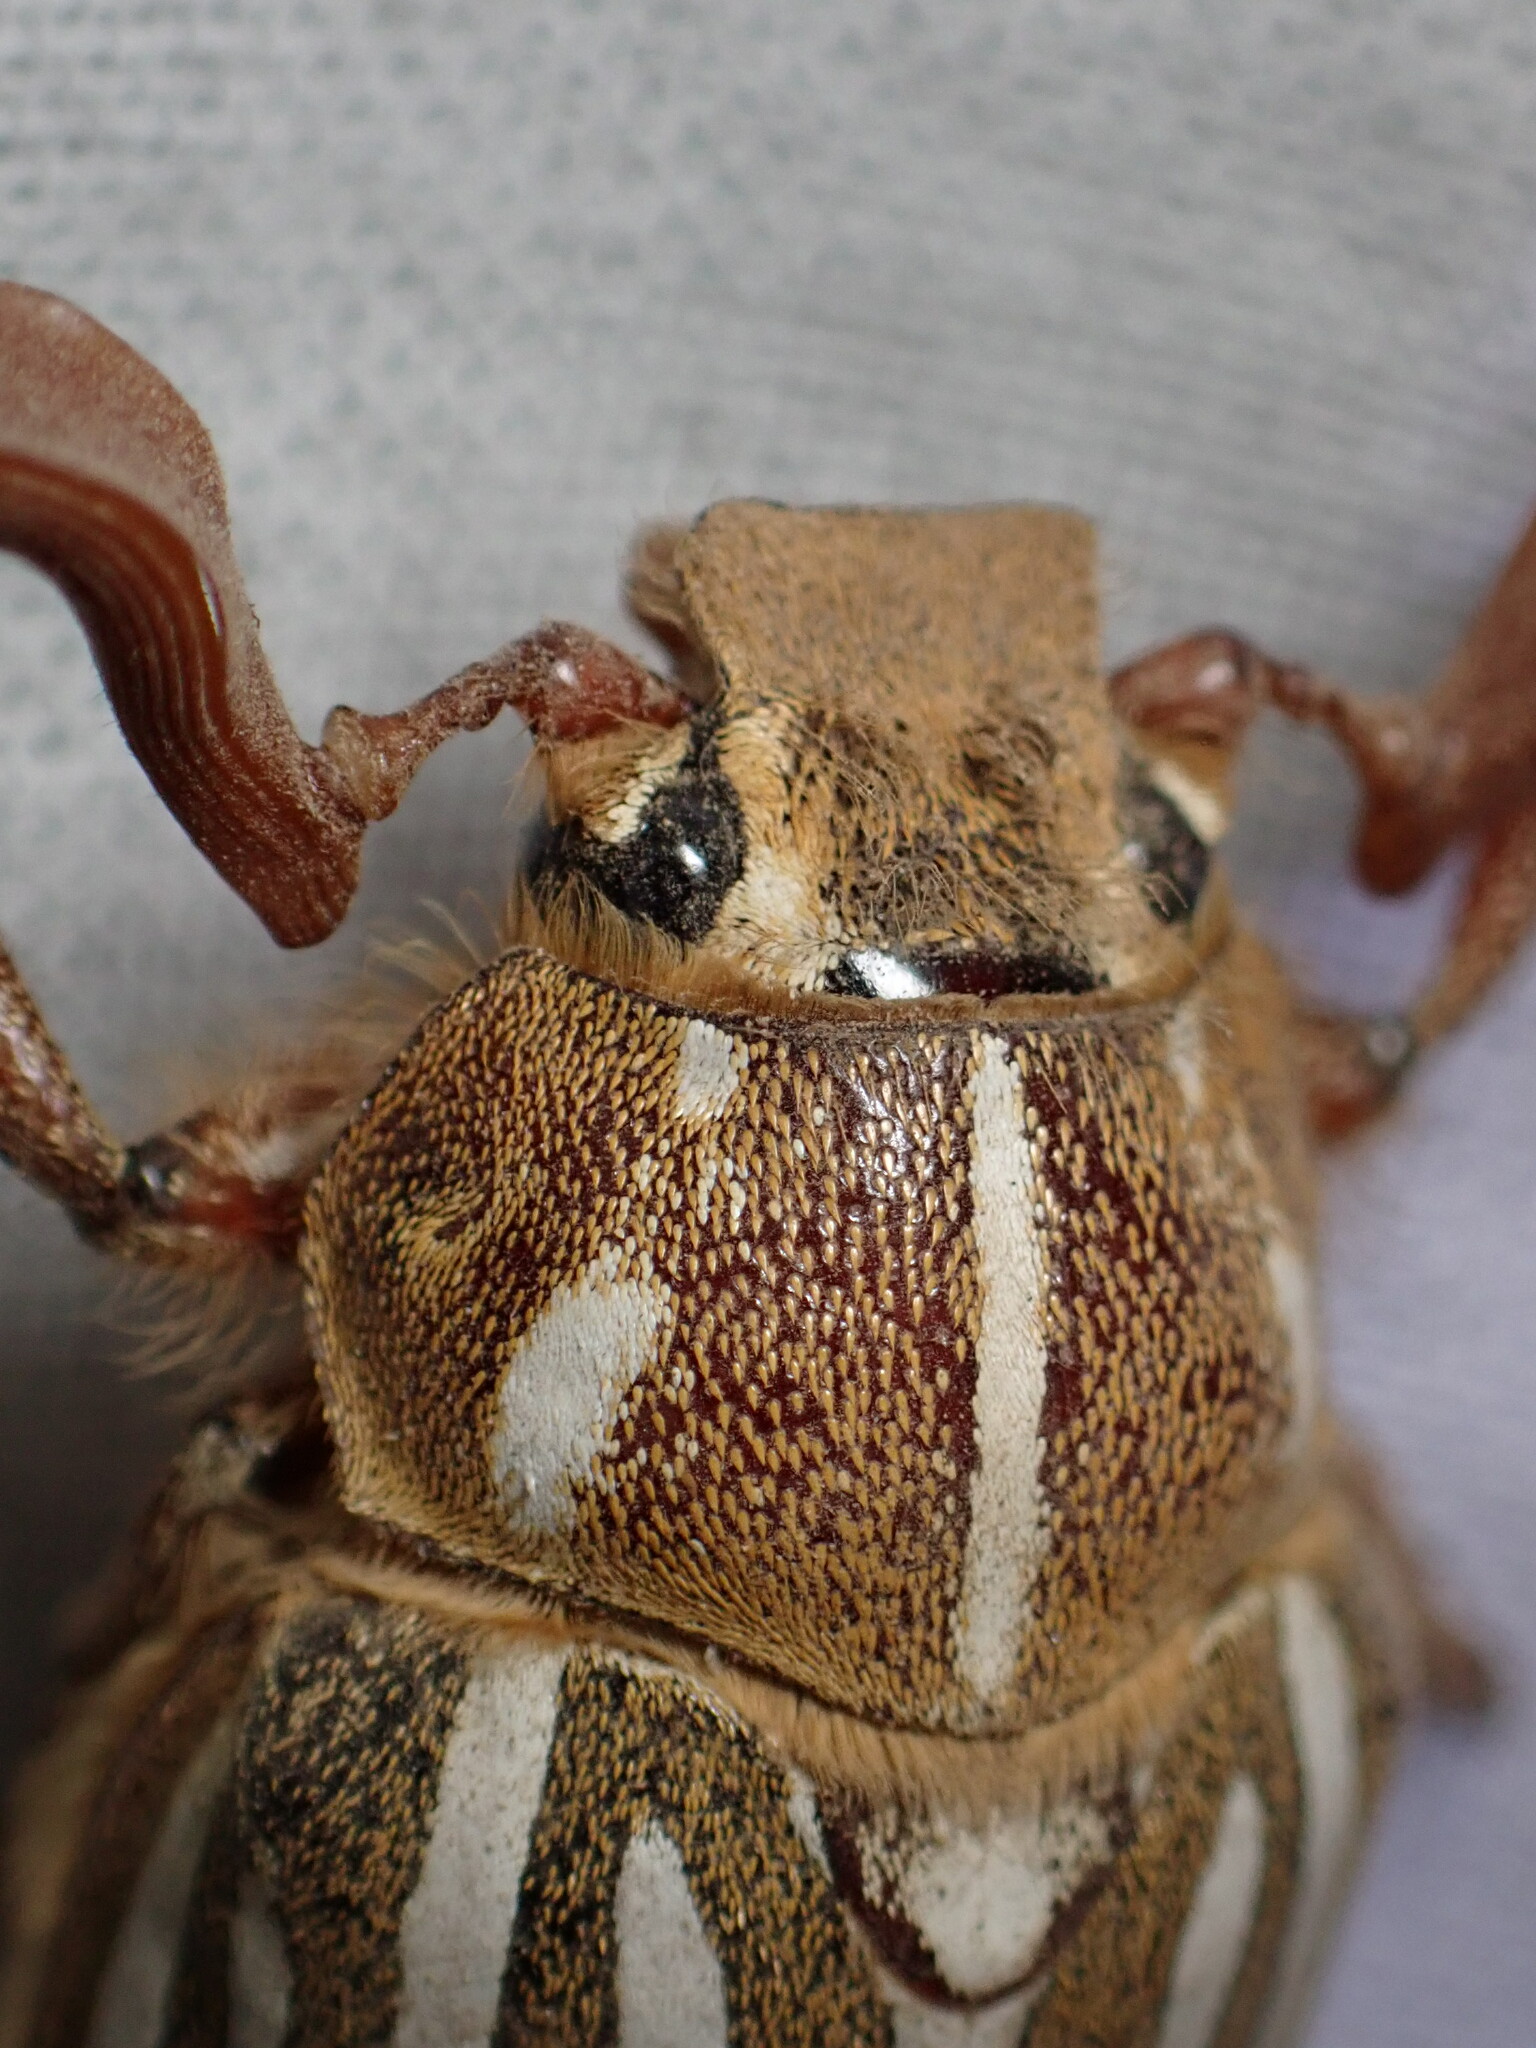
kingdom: Animalia
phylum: Arthropoda
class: Insecta
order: Coleoptera
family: Scarabaeidae
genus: Polyphylla
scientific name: Polyphylla decemlineata
